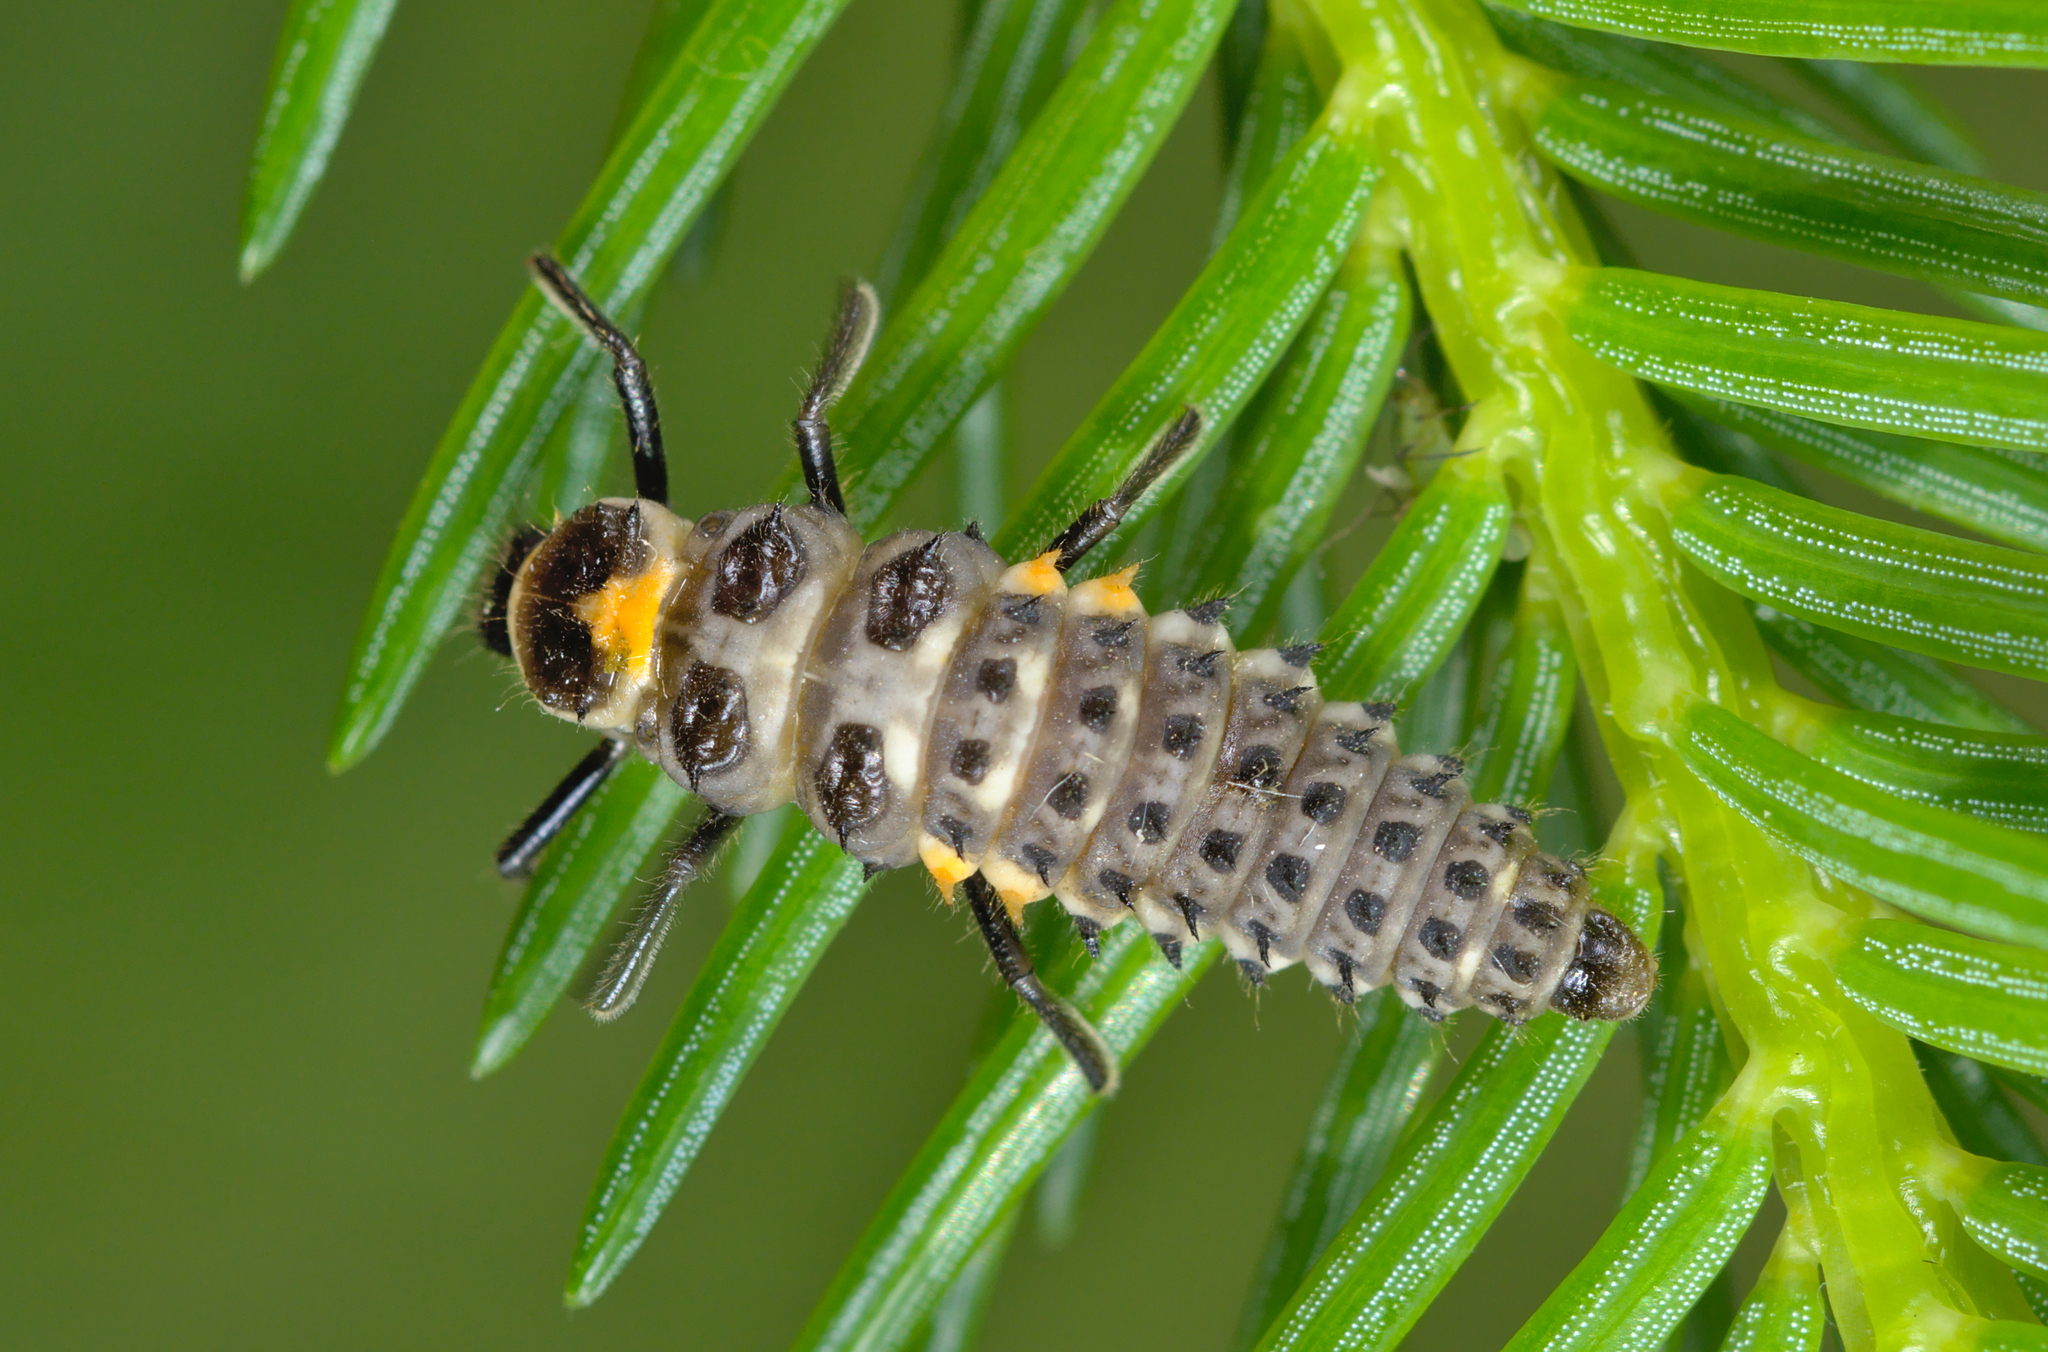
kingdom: Animalia
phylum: Arthropoda
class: Insecta
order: Coleoptera
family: Coccinellidae
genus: Anatis
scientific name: Anatis ocellata
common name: Eyed ladybird
